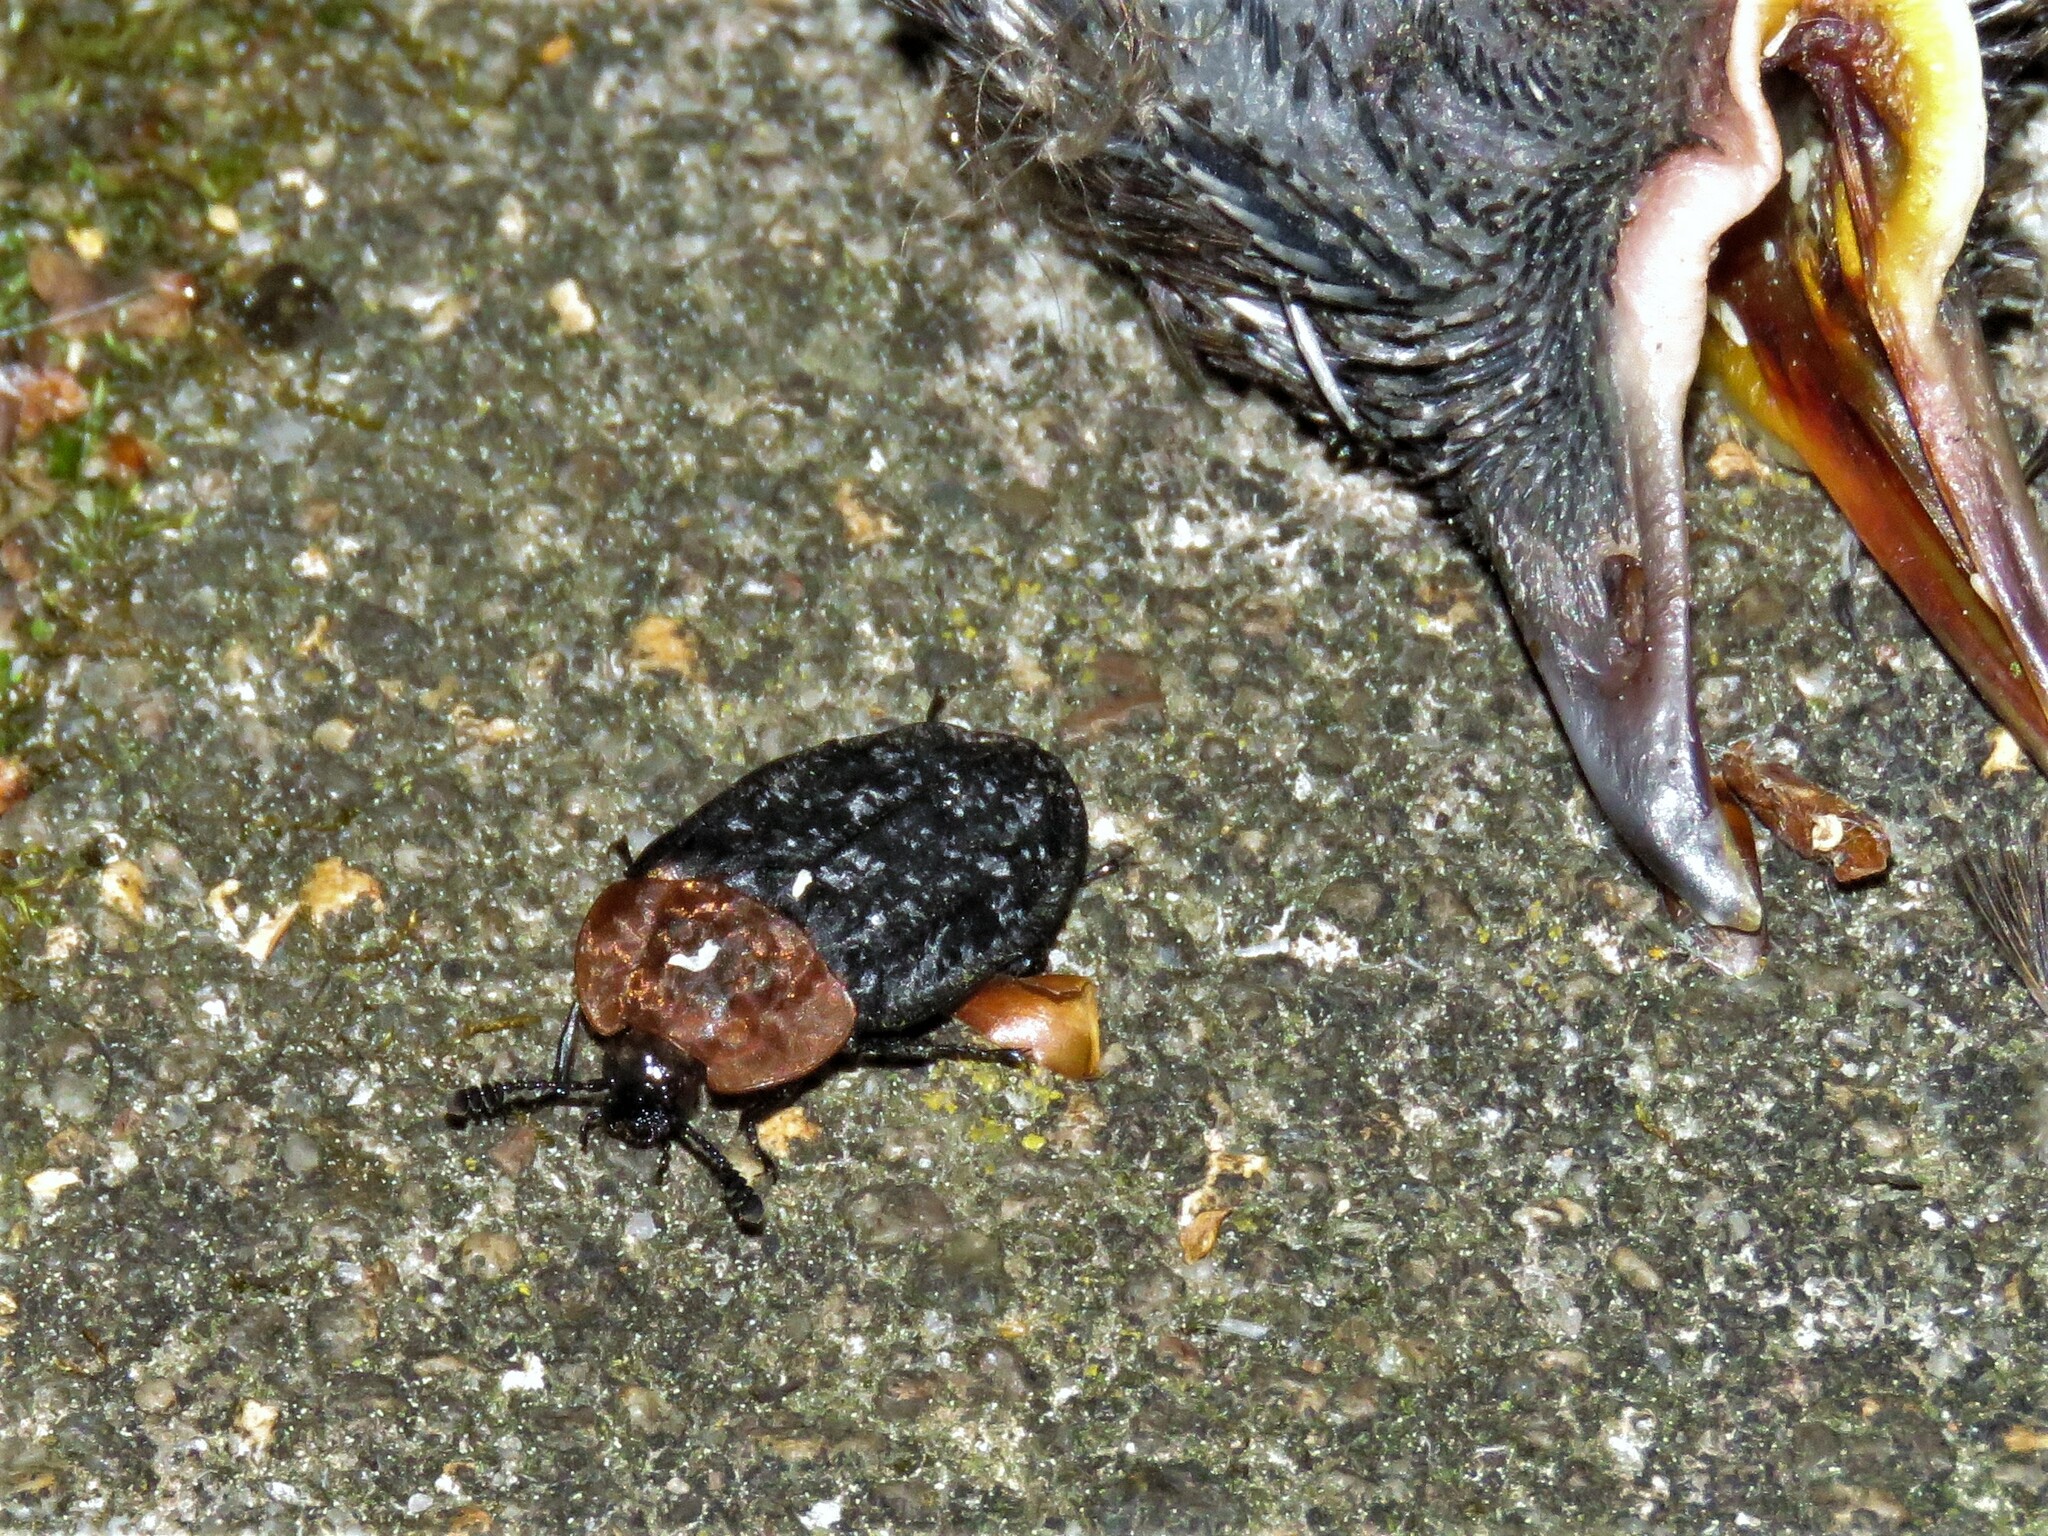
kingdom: Animalia
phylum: Arthropoda
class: Insecta
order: Coleoptera
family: Staphylinidae
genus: Oiceoptoma
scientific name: Oiceoptoma thoracicum
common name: Red-breasted carrion beetle
